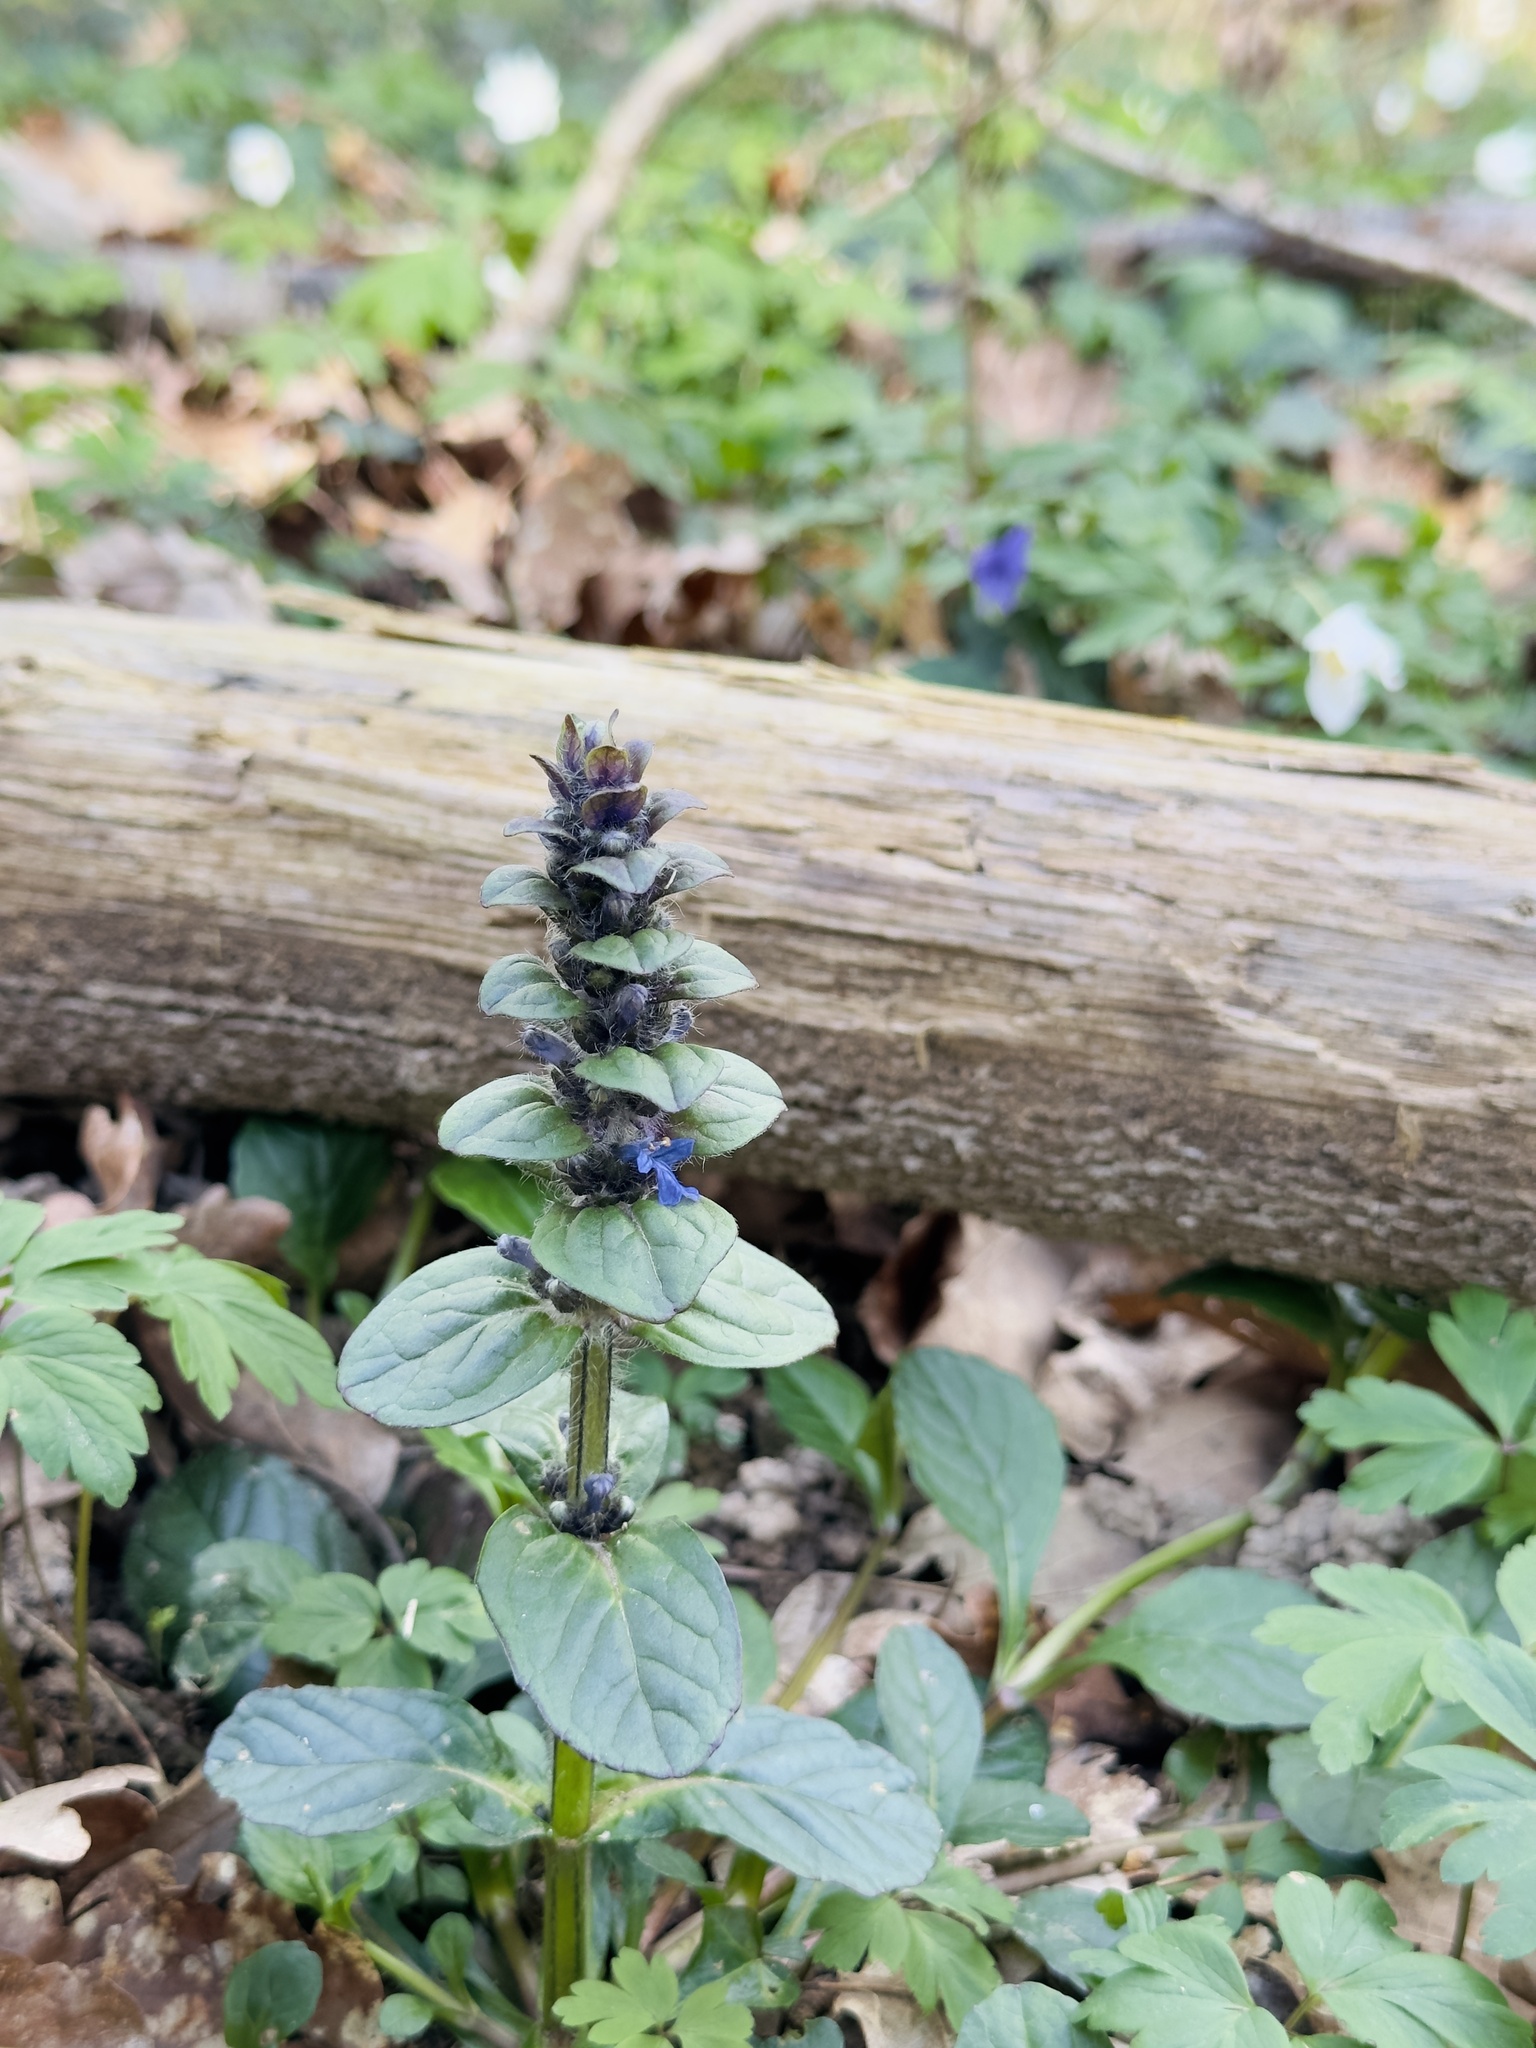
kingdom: Plantae
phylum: Tracheophyta
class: Magnoliopsida
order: Lamiales
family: Lamiaceae
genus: Ajuga
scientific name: Ajuga reptans
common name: Bugle
